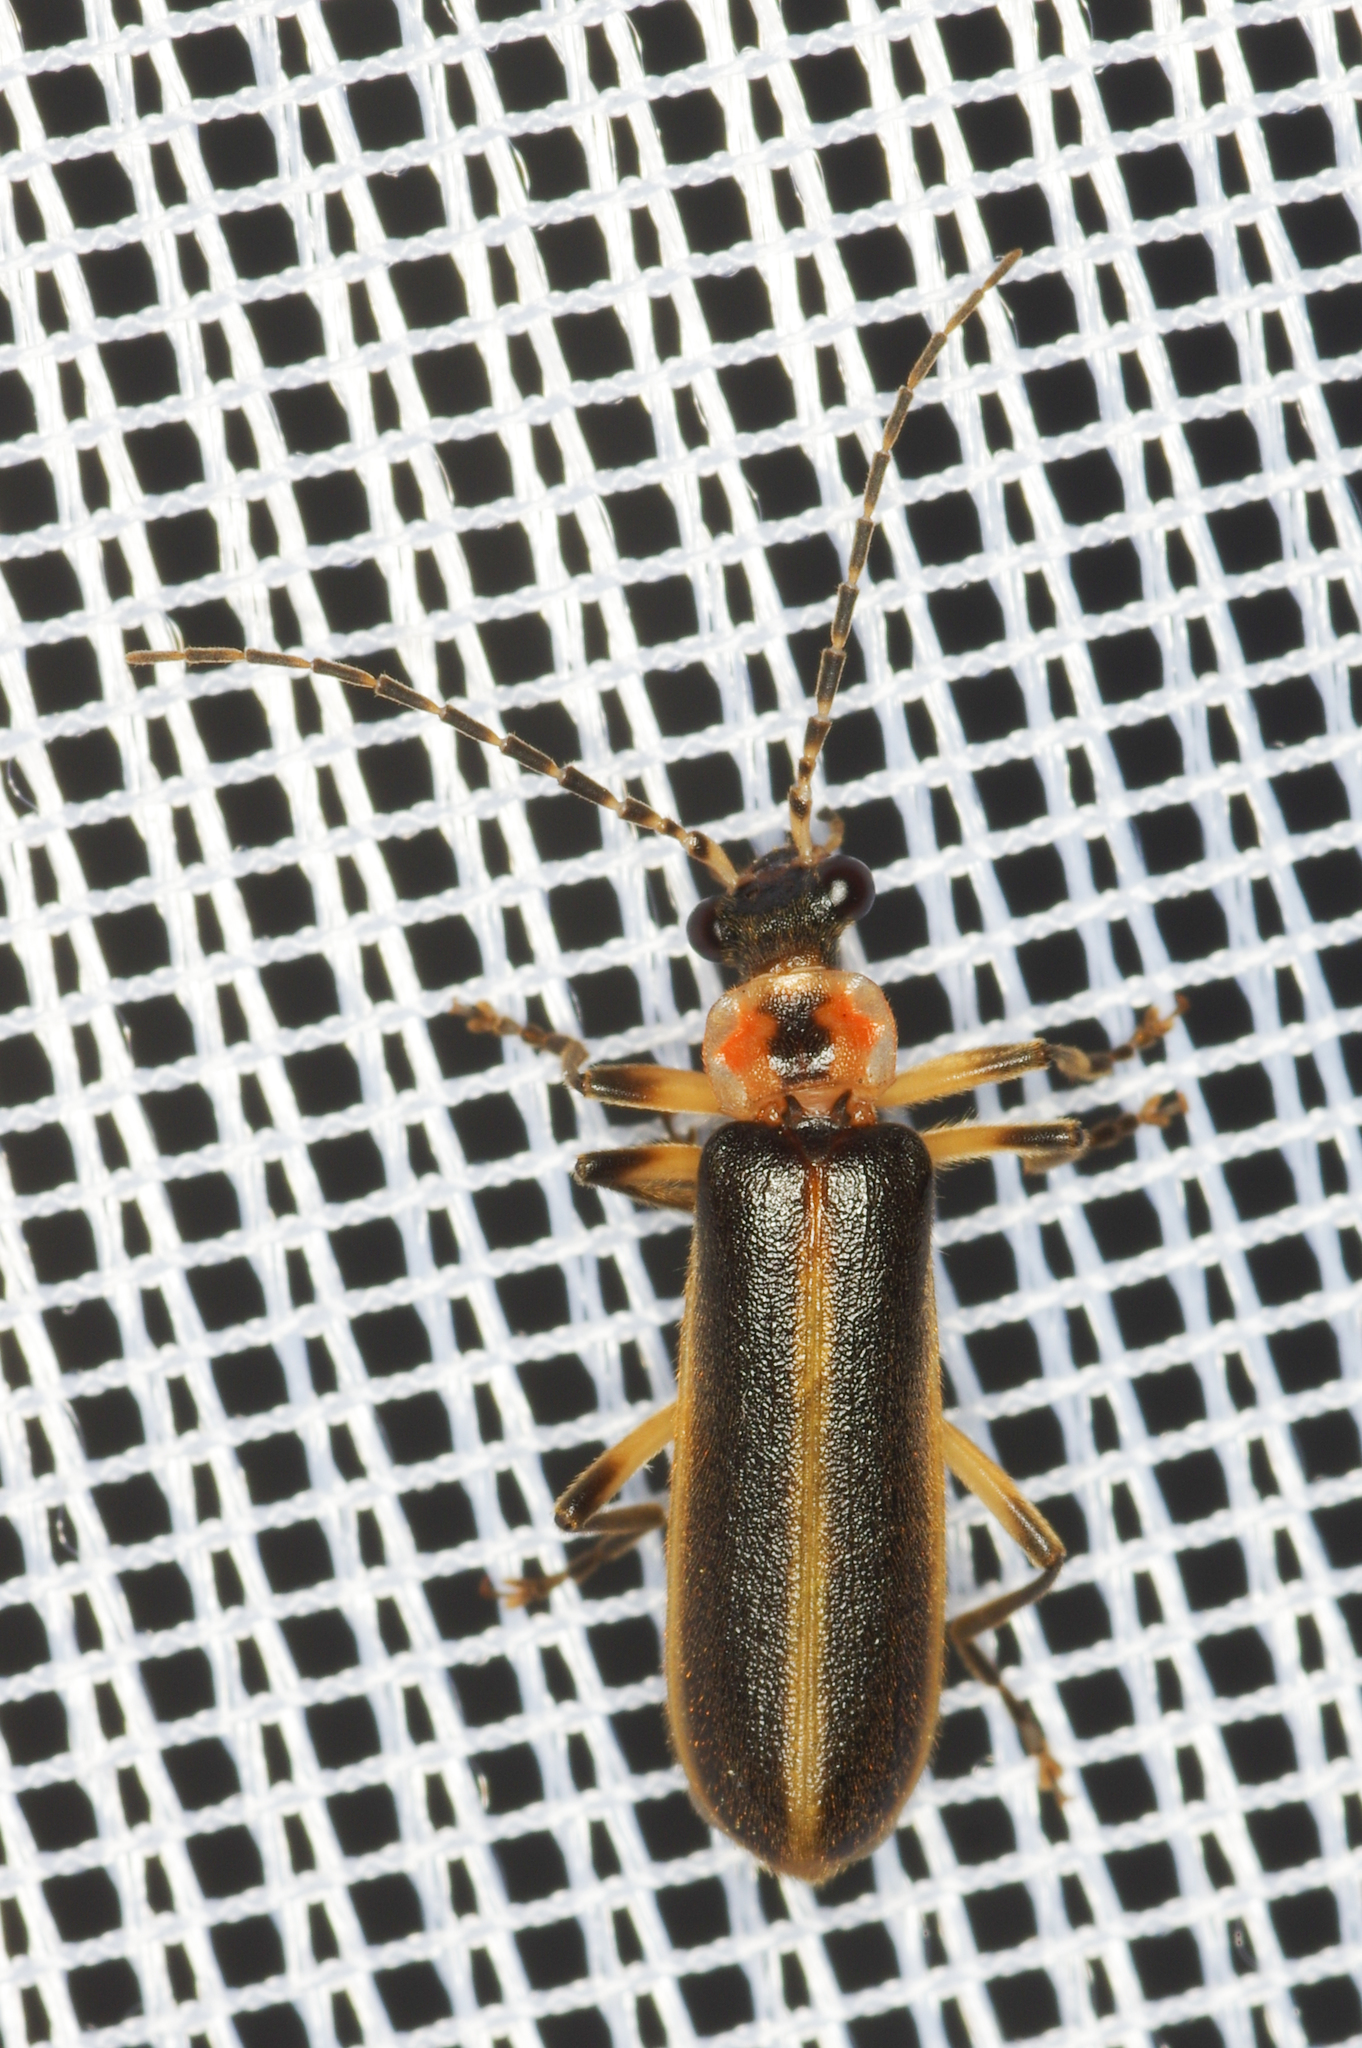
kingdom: Animalia
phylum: Arthropoda
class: Insecta
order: Coleoptera
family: Cantharidae
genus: Podabrus
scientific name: Podabrus basilaris
